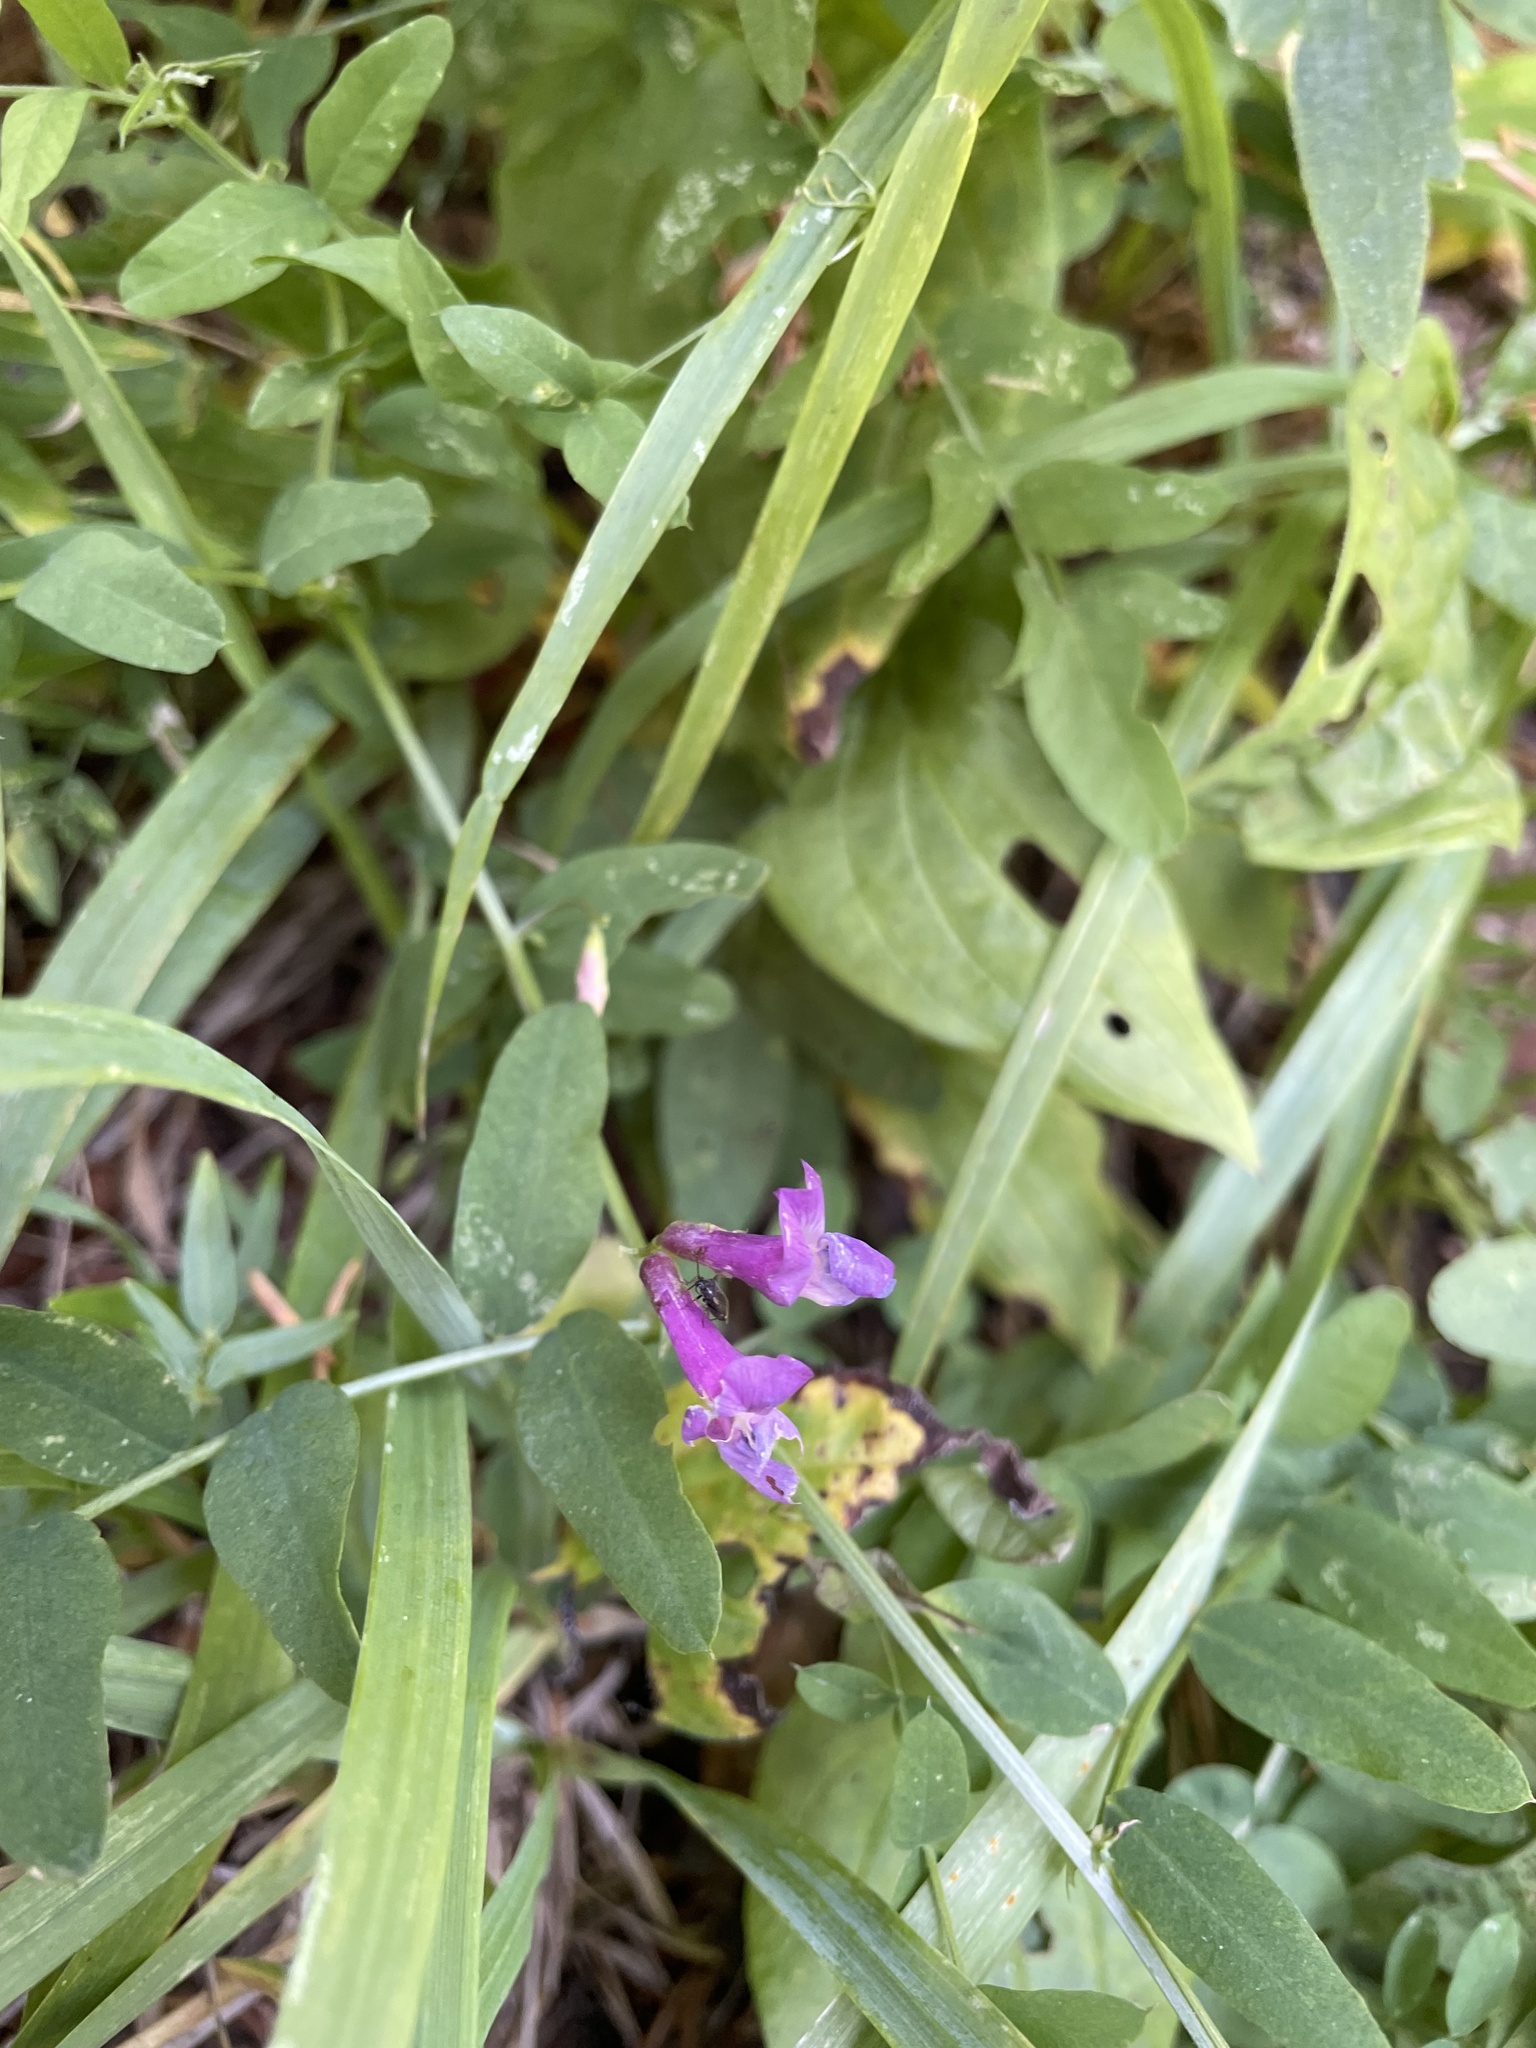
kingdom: Plantae
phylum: Tracheophyta
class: Magnoliopsida
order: Fabales
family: Fabaceae
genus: Vicia
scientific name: Vicia americana
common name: American vetch
